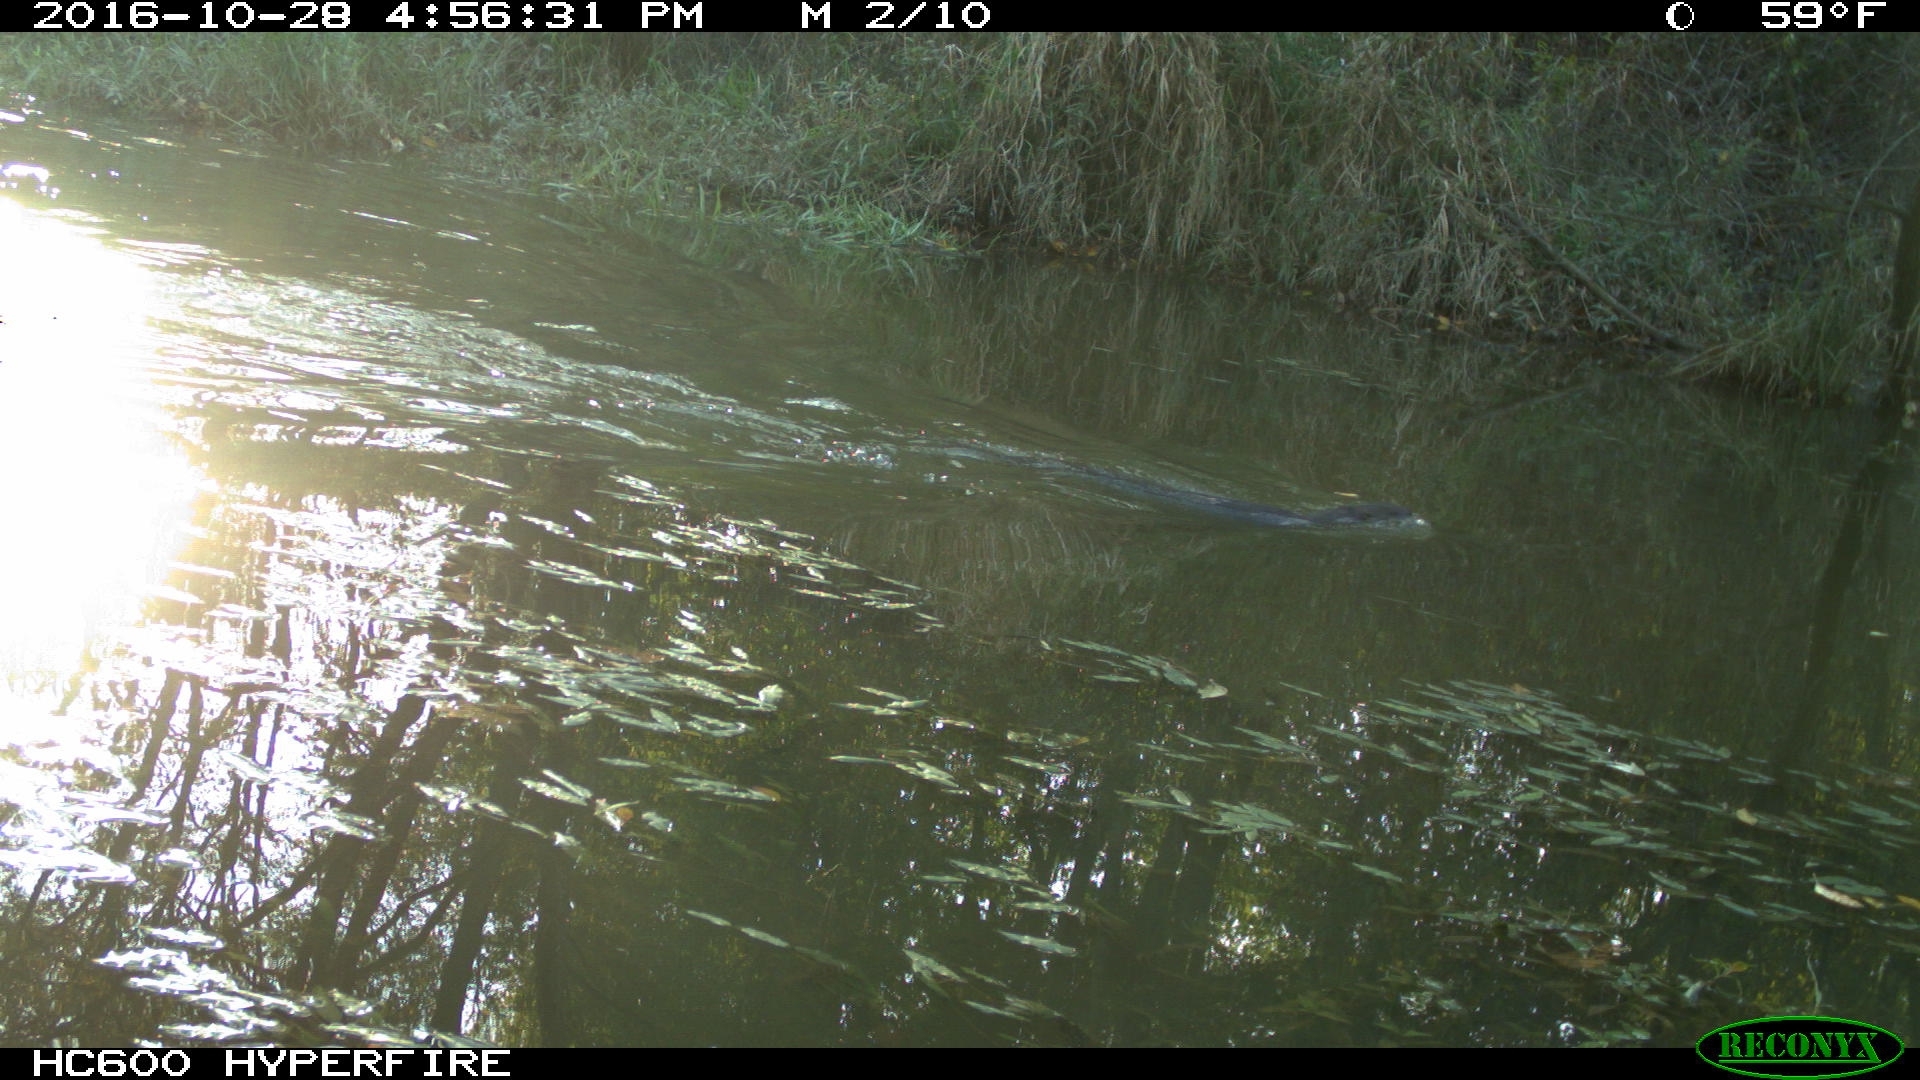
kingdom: Animalia
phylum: Chordata
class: Mammalia
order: Carnivora
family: Mustelidae
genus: Lontra
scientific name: Lontra canadensis
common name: North american river otter
